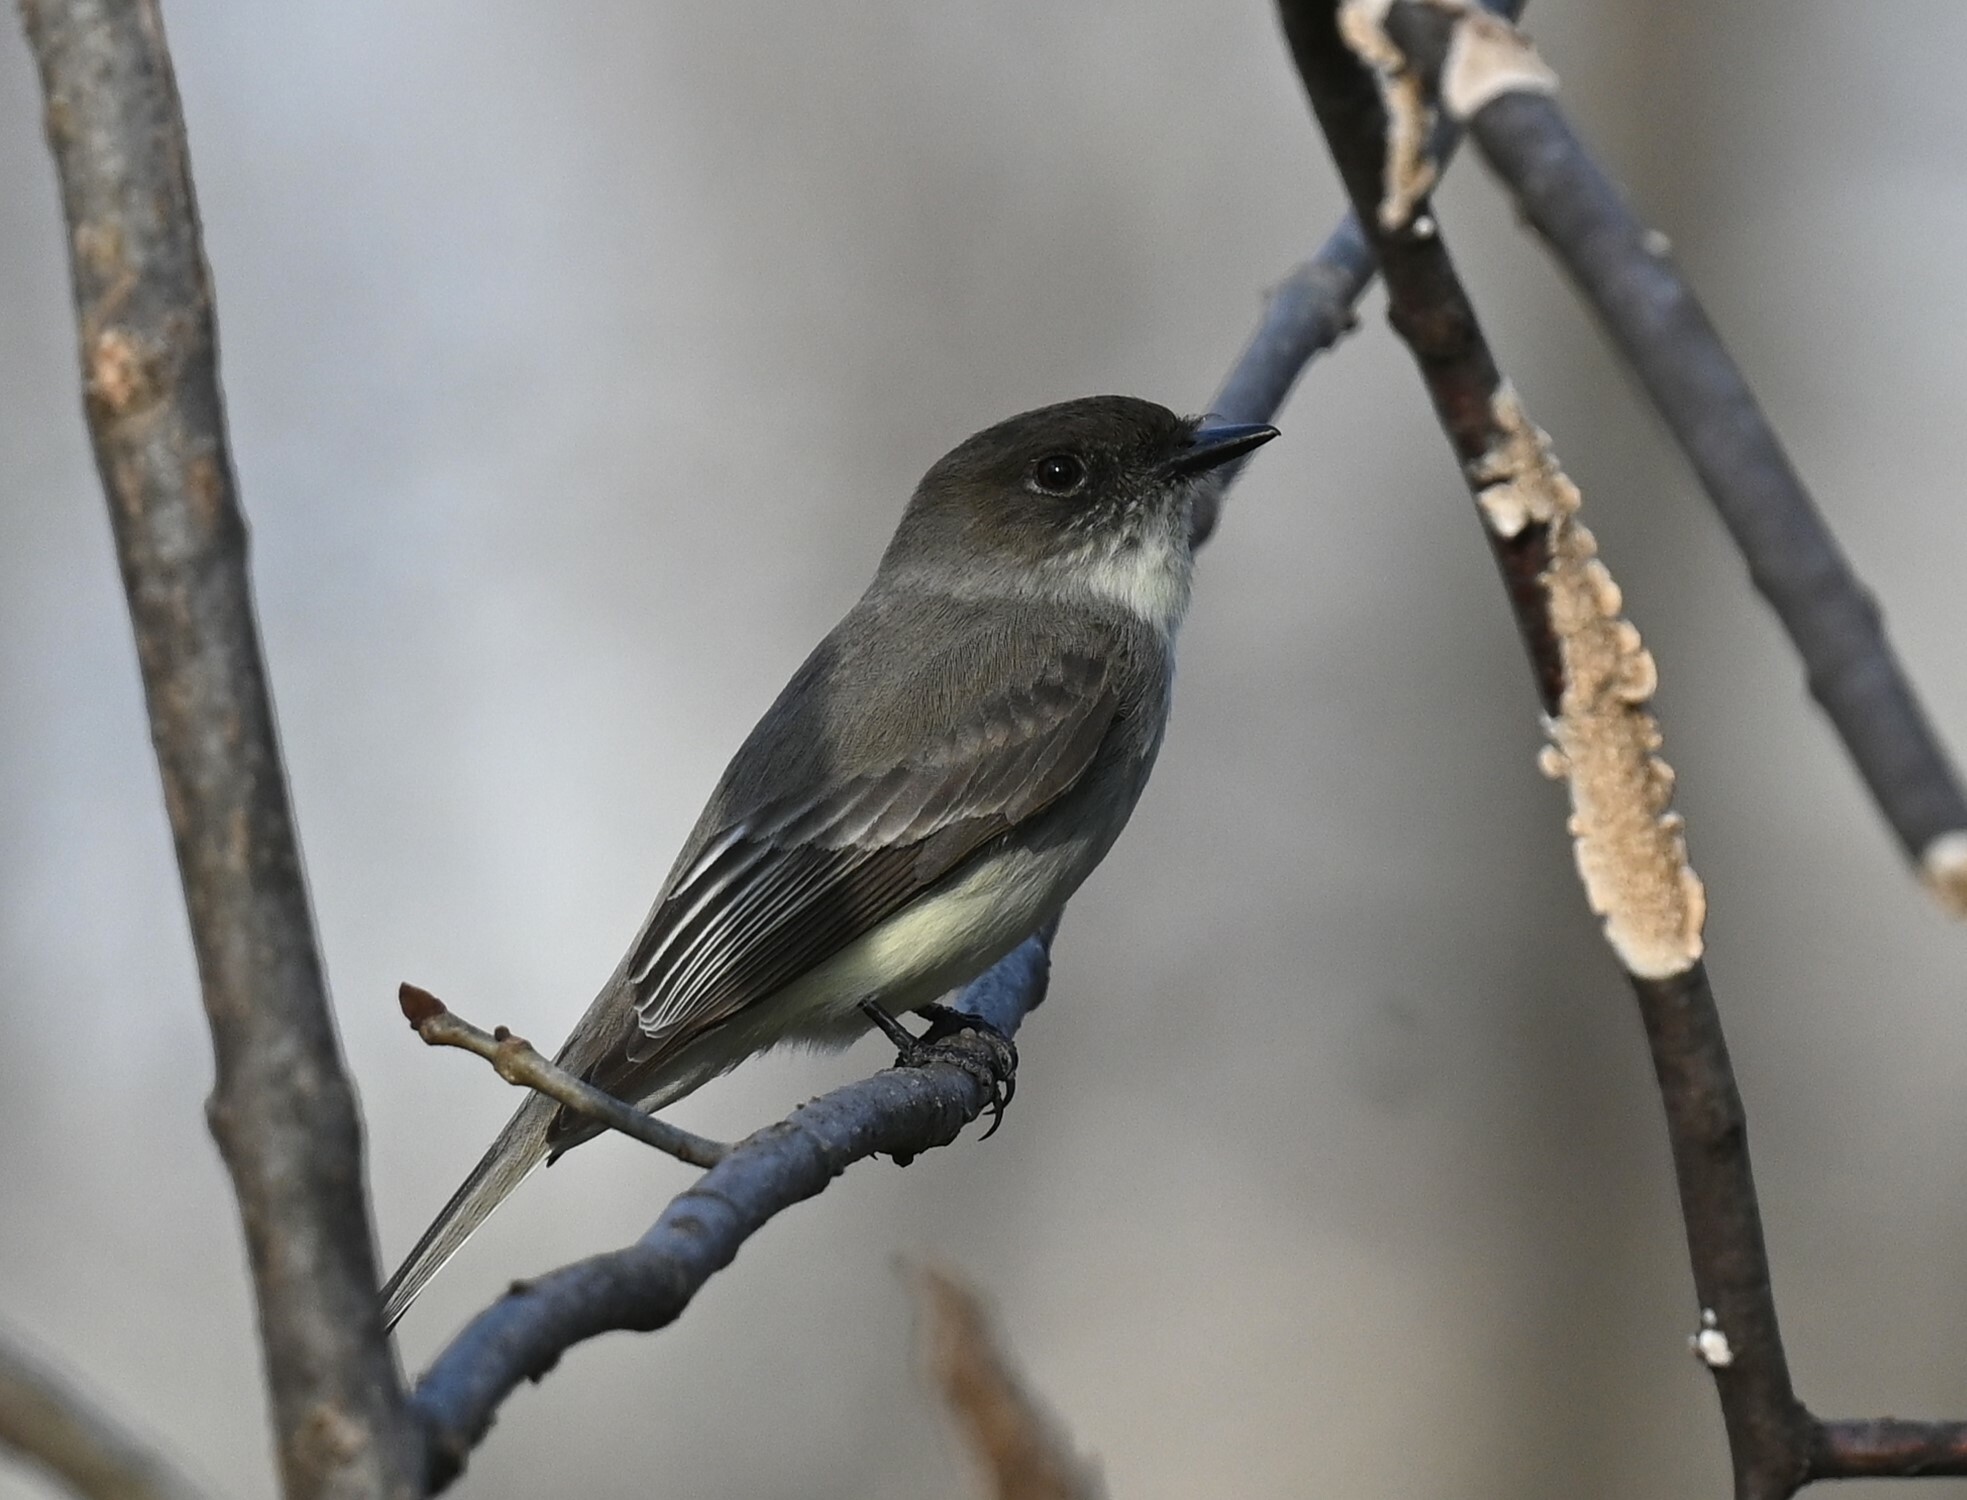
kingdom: Animalia
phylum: Chordata
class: Aves
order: Passeriformes
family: Tyrannidae
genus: Sayornis
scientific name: Sayornis phoebe
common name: Eastern phoebe
